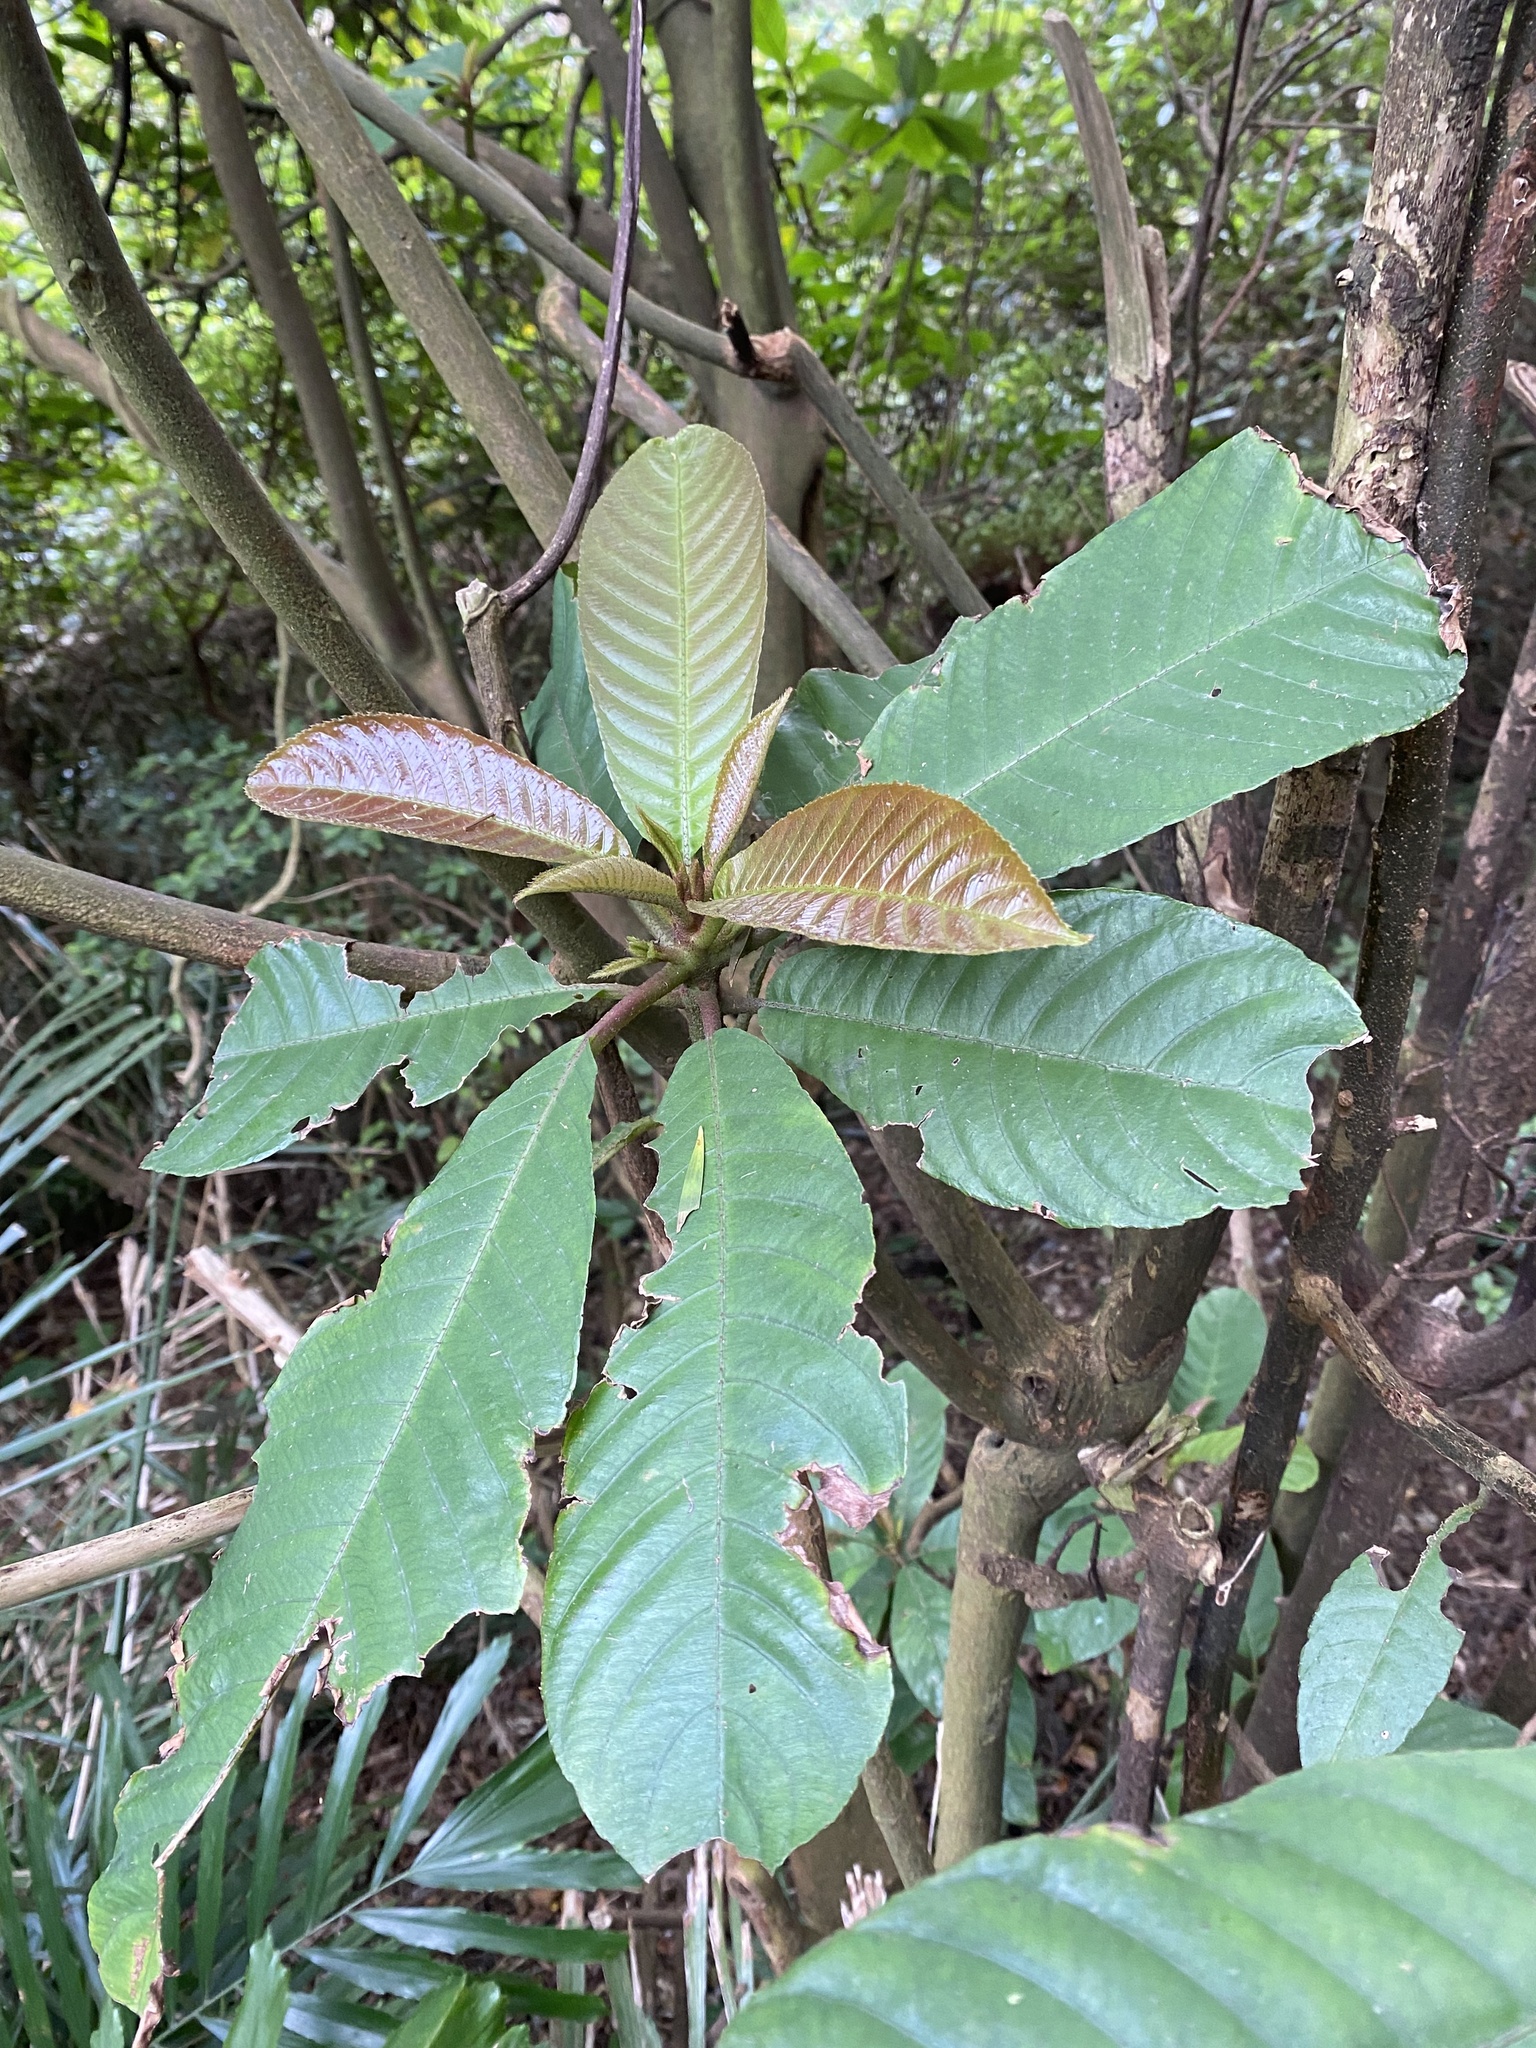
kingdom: Plantae
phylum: Tracheophyta
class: Magnoliopsida
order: Ericales
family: Actinidiaceae
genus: Saurauia
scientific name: Saurauia tristyla
